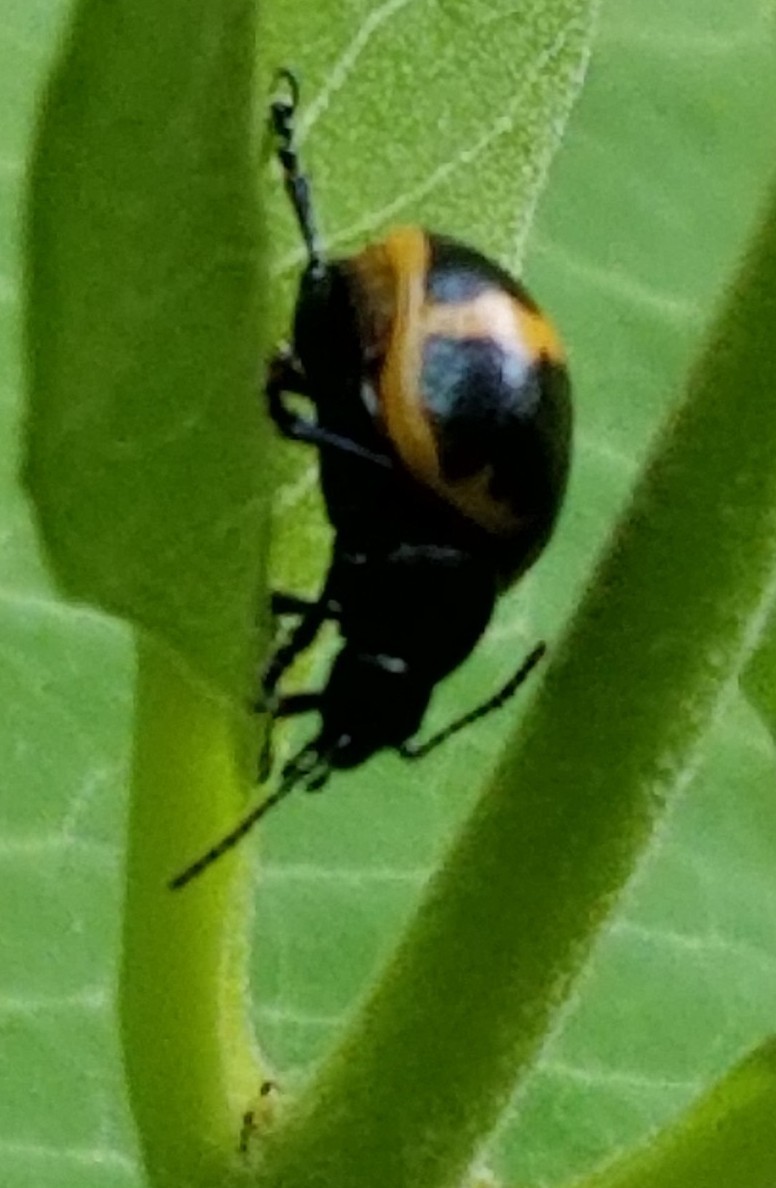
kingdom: Animalia
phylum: Arthropoda
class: Insecta
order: Coleoptera
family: Chrysomelidae
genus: Labidomera
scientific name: Labidomera clivicollis
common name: Swamp milkweed leaf beetle
